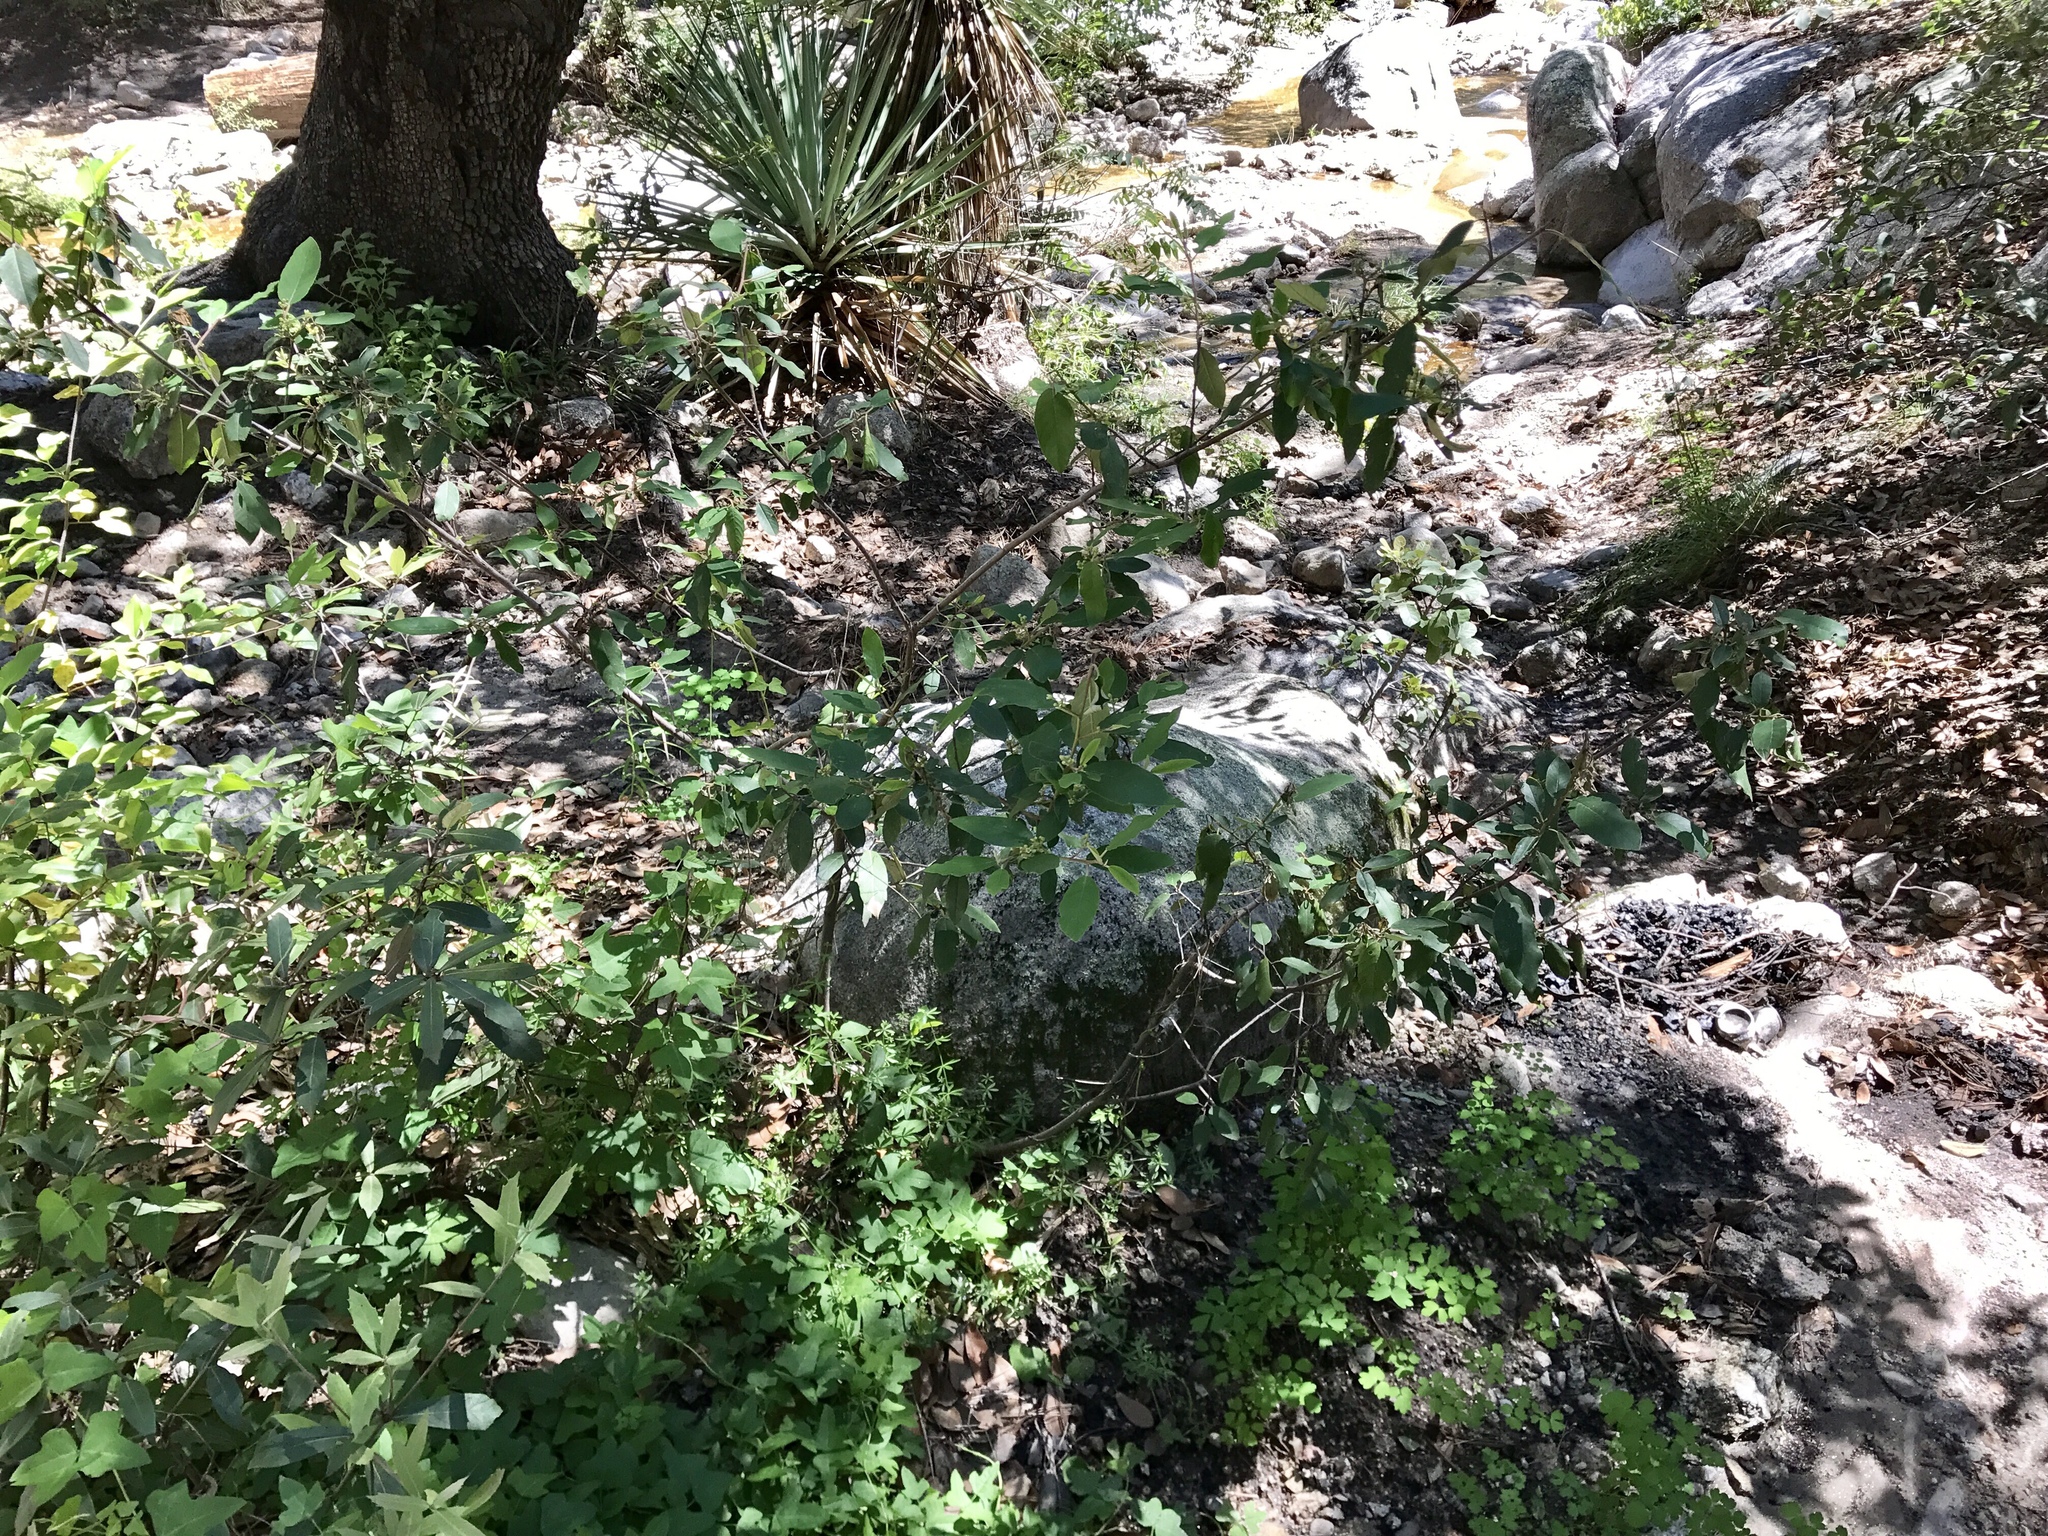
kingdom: Plantae
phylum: Tracheophyta
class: Magnoliopsida
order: Rosales
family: Rhamnaceae
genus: Frangula
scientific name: Frangula californica
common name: California buckthorn
